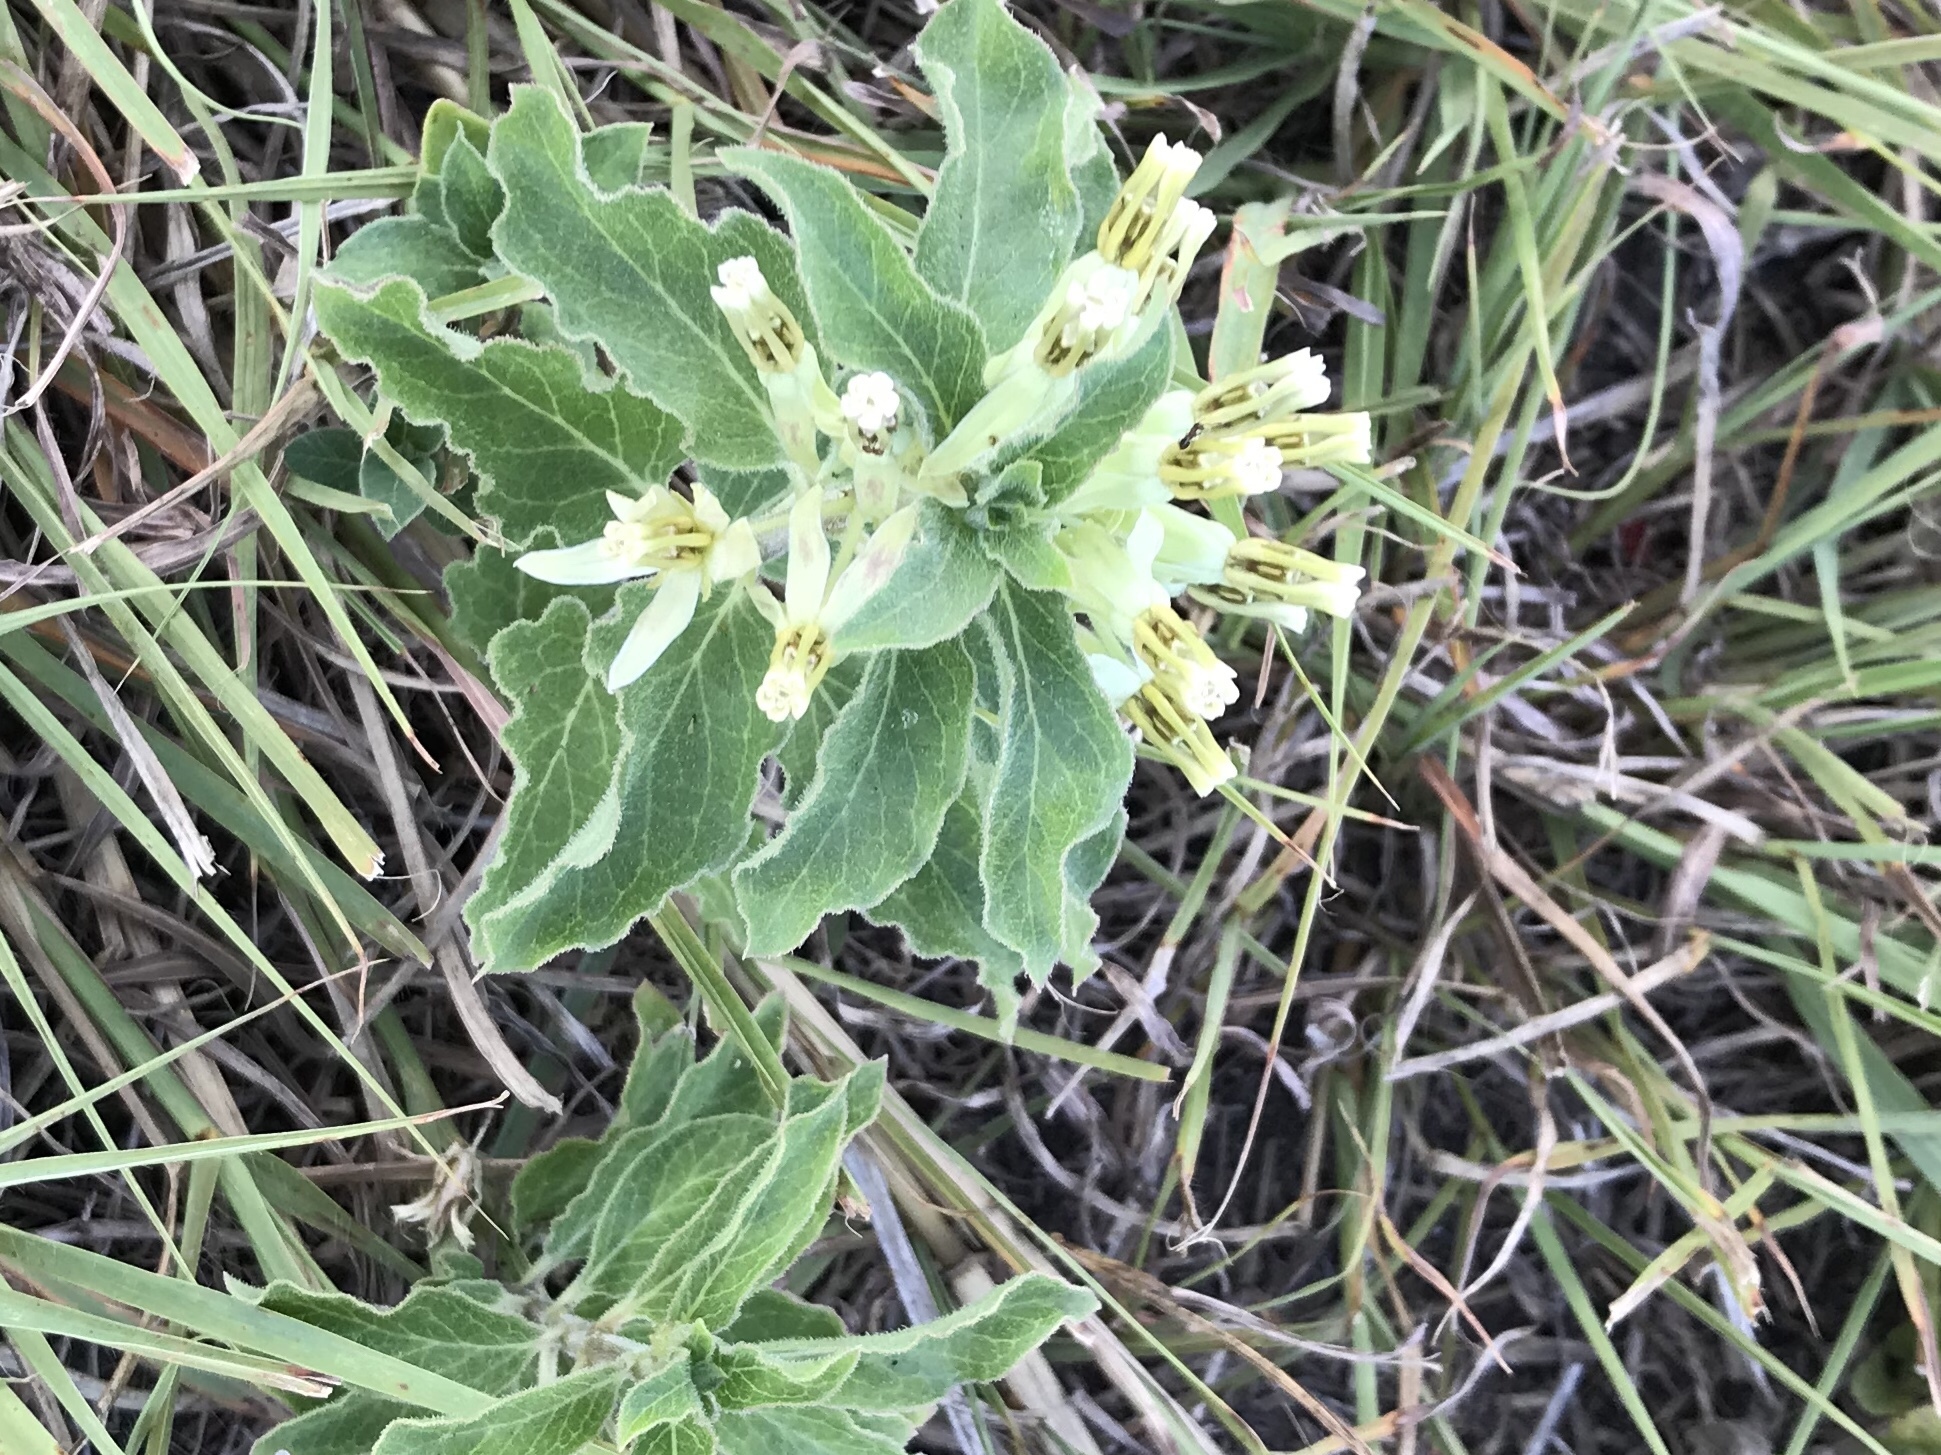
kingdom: Plantae
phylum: Tracheophyta
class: Magnoliopsida
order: Gentianales
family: Apocynaceae
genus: Asclepias
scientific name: Asclepias oenotheroides
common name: Zizotes milkweed
